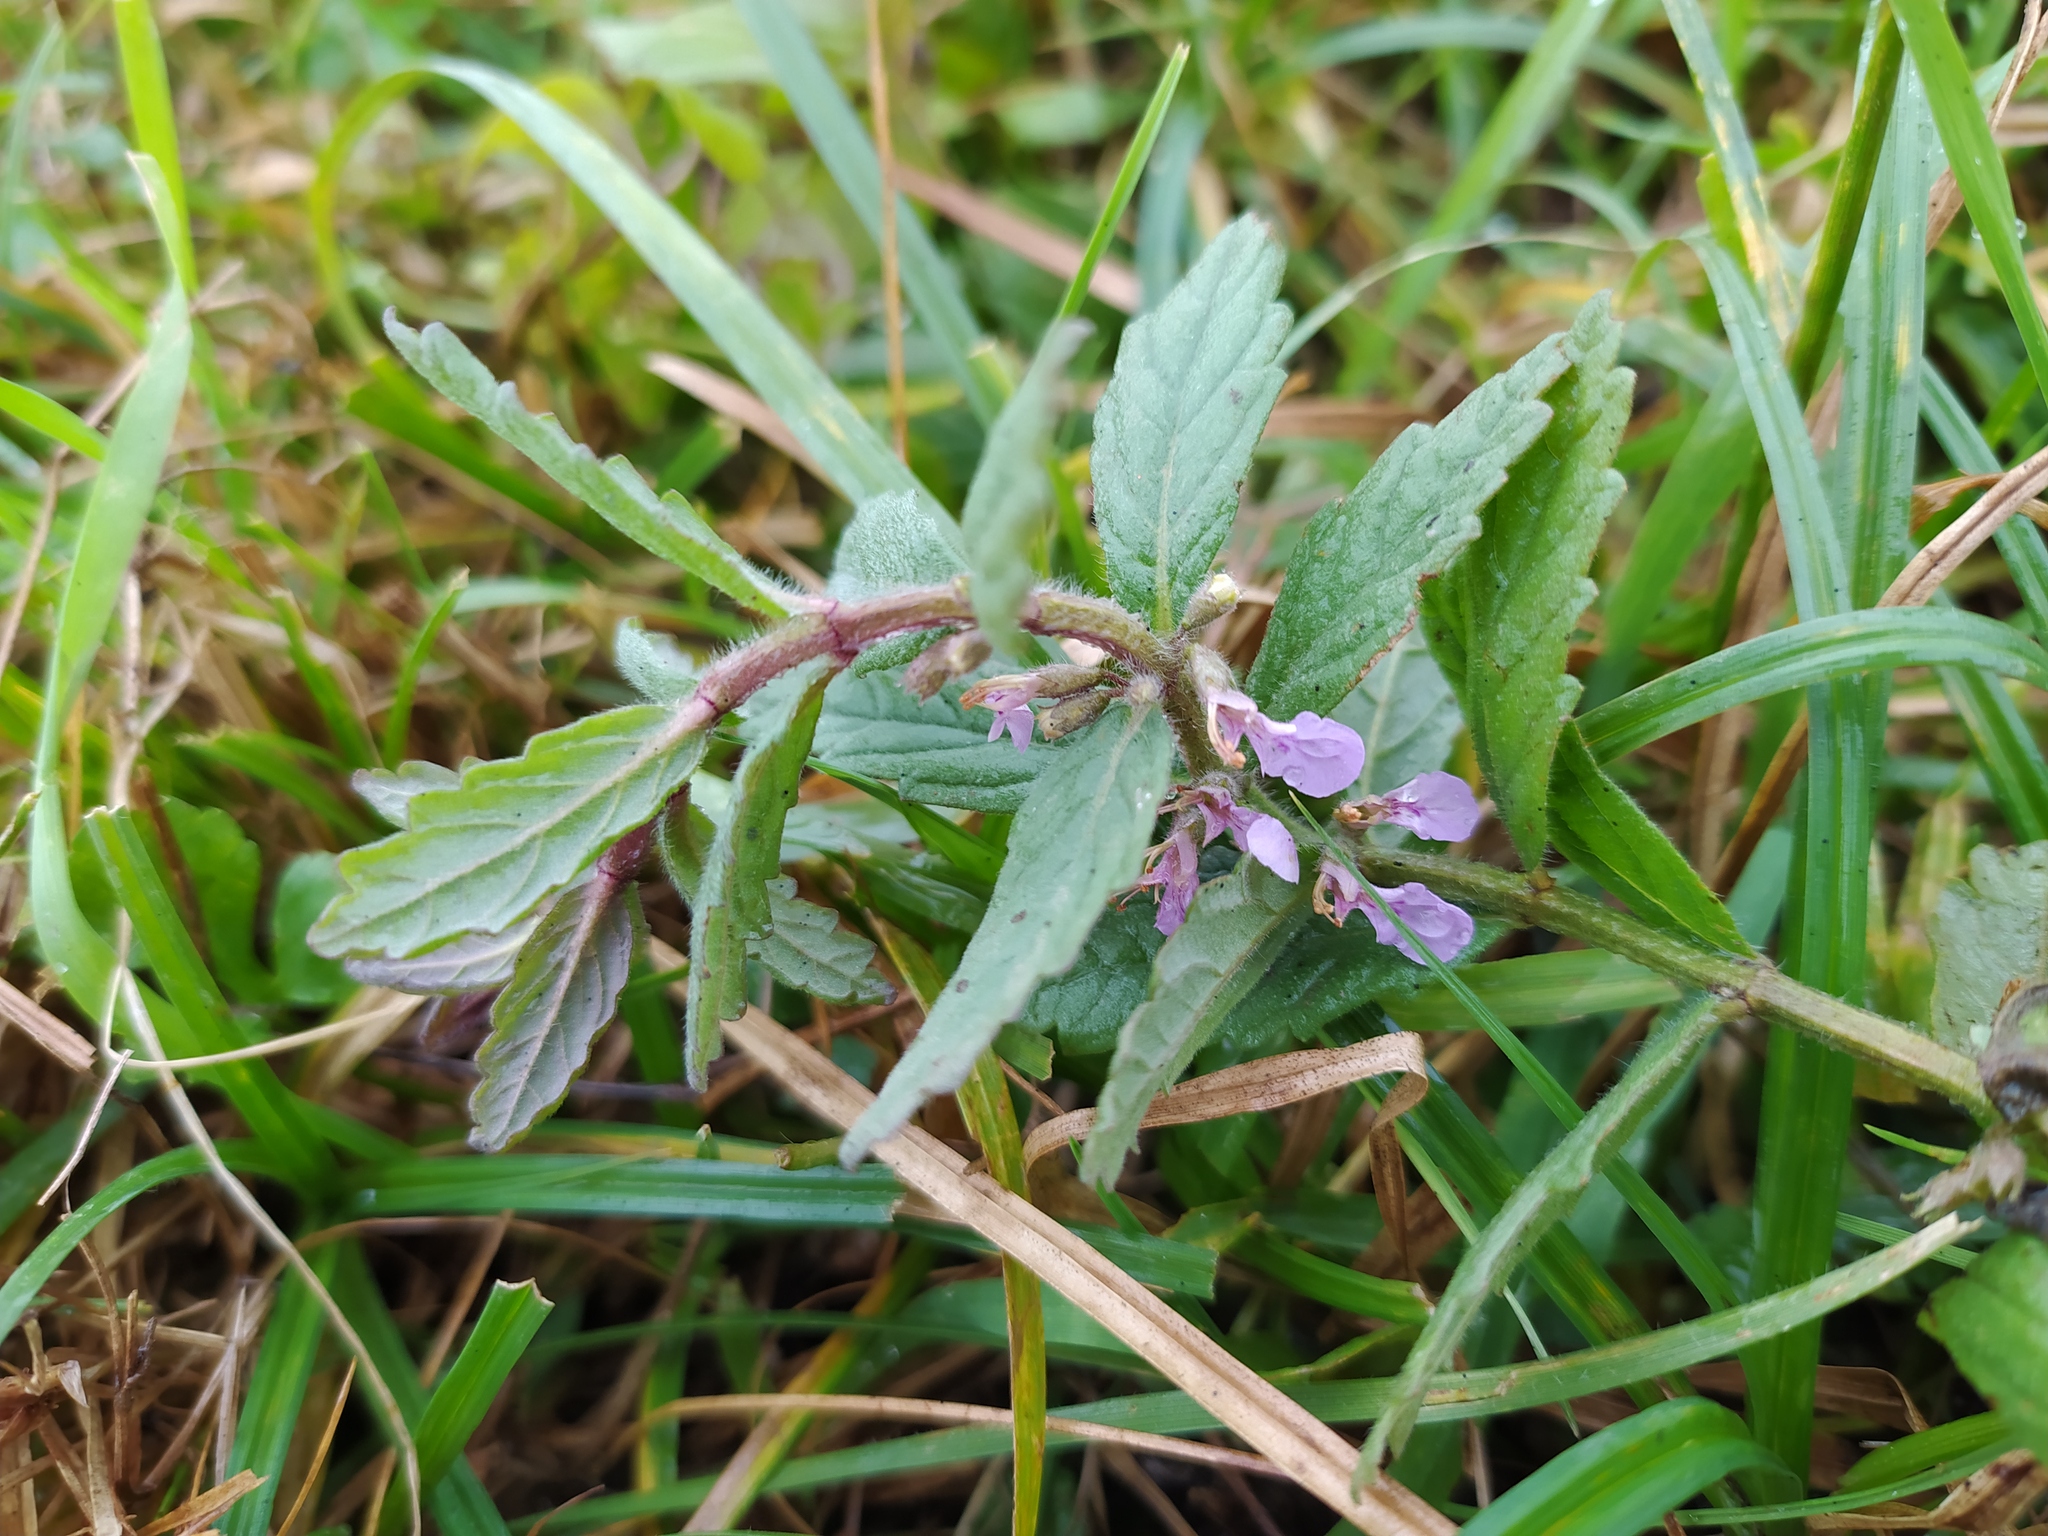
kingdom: Plantae
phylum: Tracheophyta
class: Magnoliopsida
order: Lamiales
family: Lamiaceae
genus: Teucrium
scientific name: Teucrium scordium
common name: Water germander
